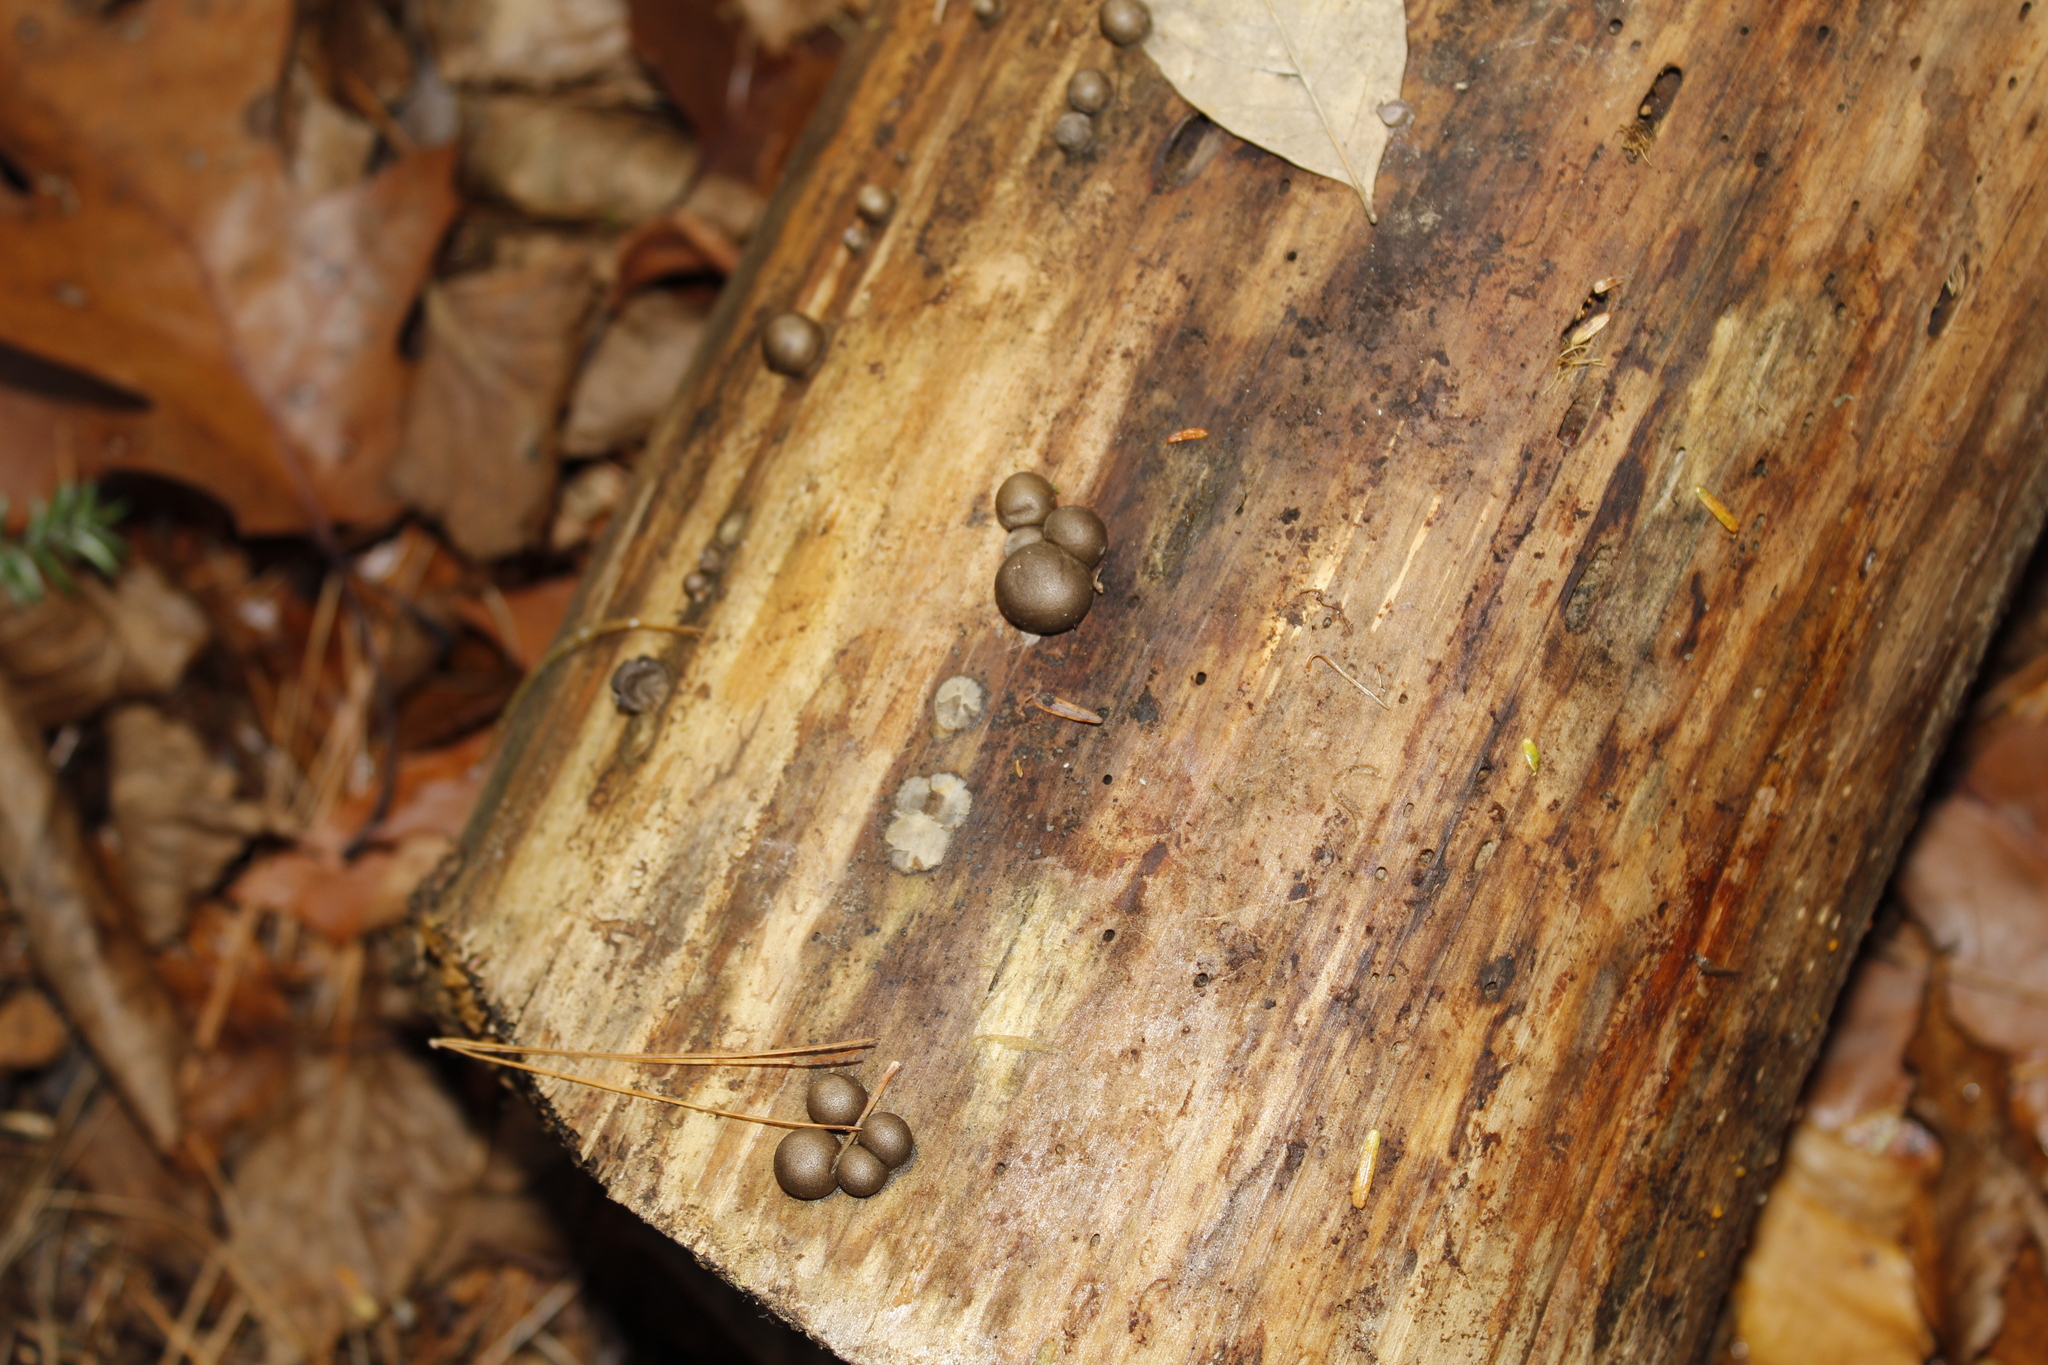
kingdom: Protozoa
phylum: Mycetozoa
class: Myxomycetes
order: Cribrariales
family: Tubiferaceae
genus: Lycogala
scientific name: Lycogala
